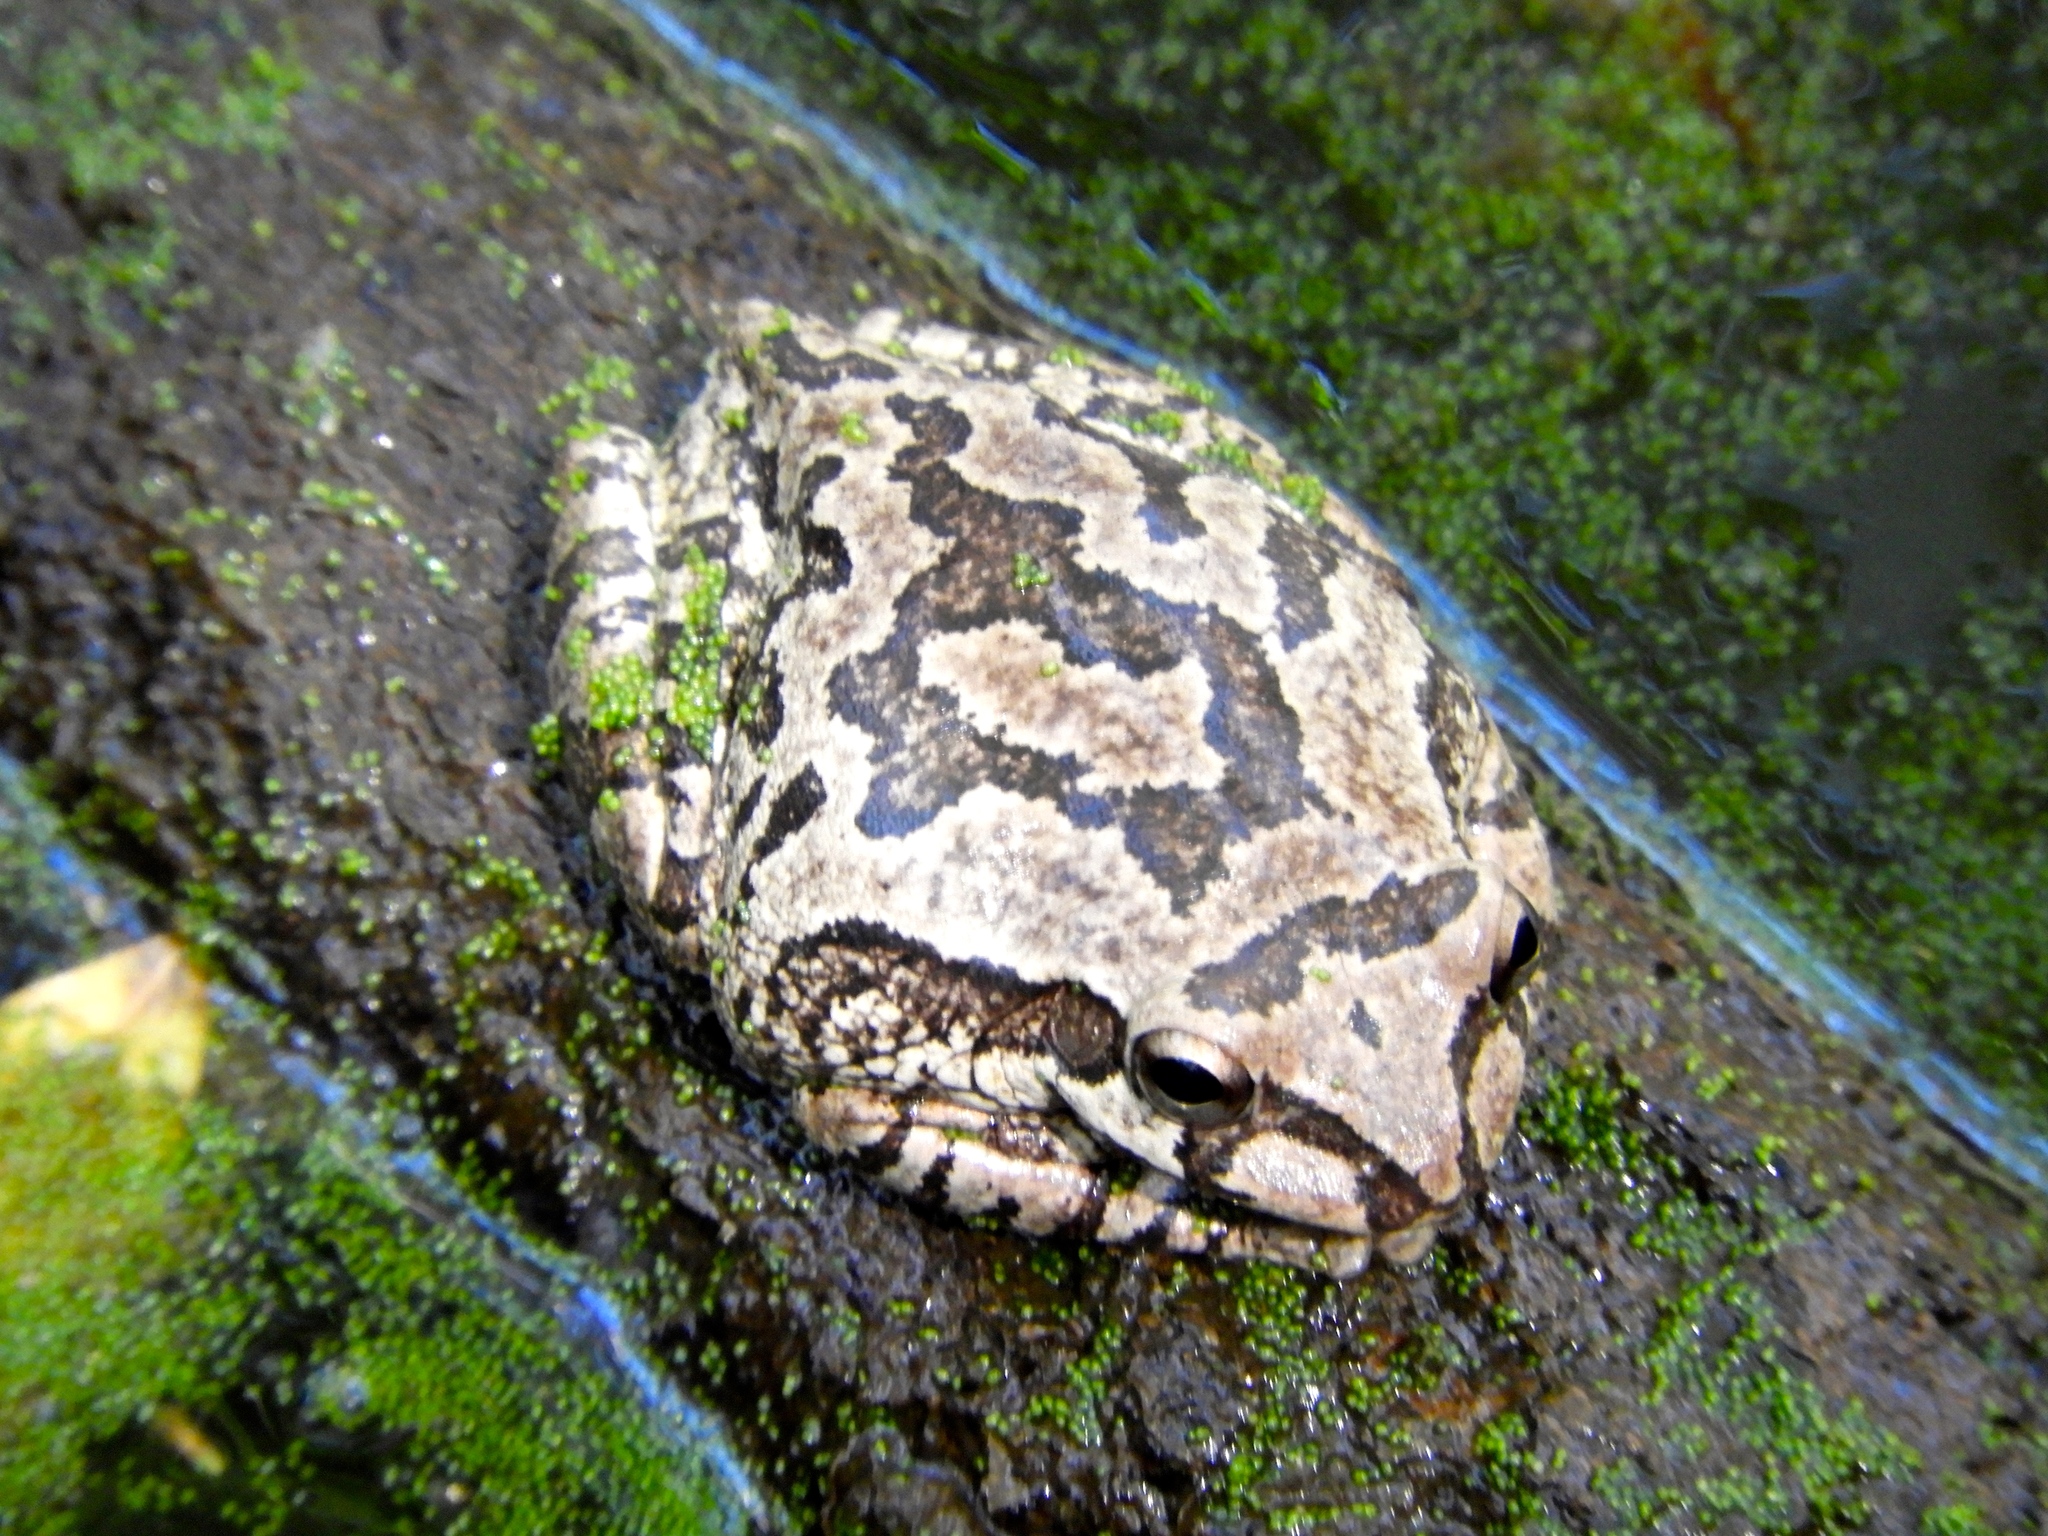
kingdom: Animalia
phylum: Chordata
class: Amphibia
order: Anura
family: Hylidae
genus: Smilisca
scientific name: Smilisca baudinii
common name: Mexican smilisca
